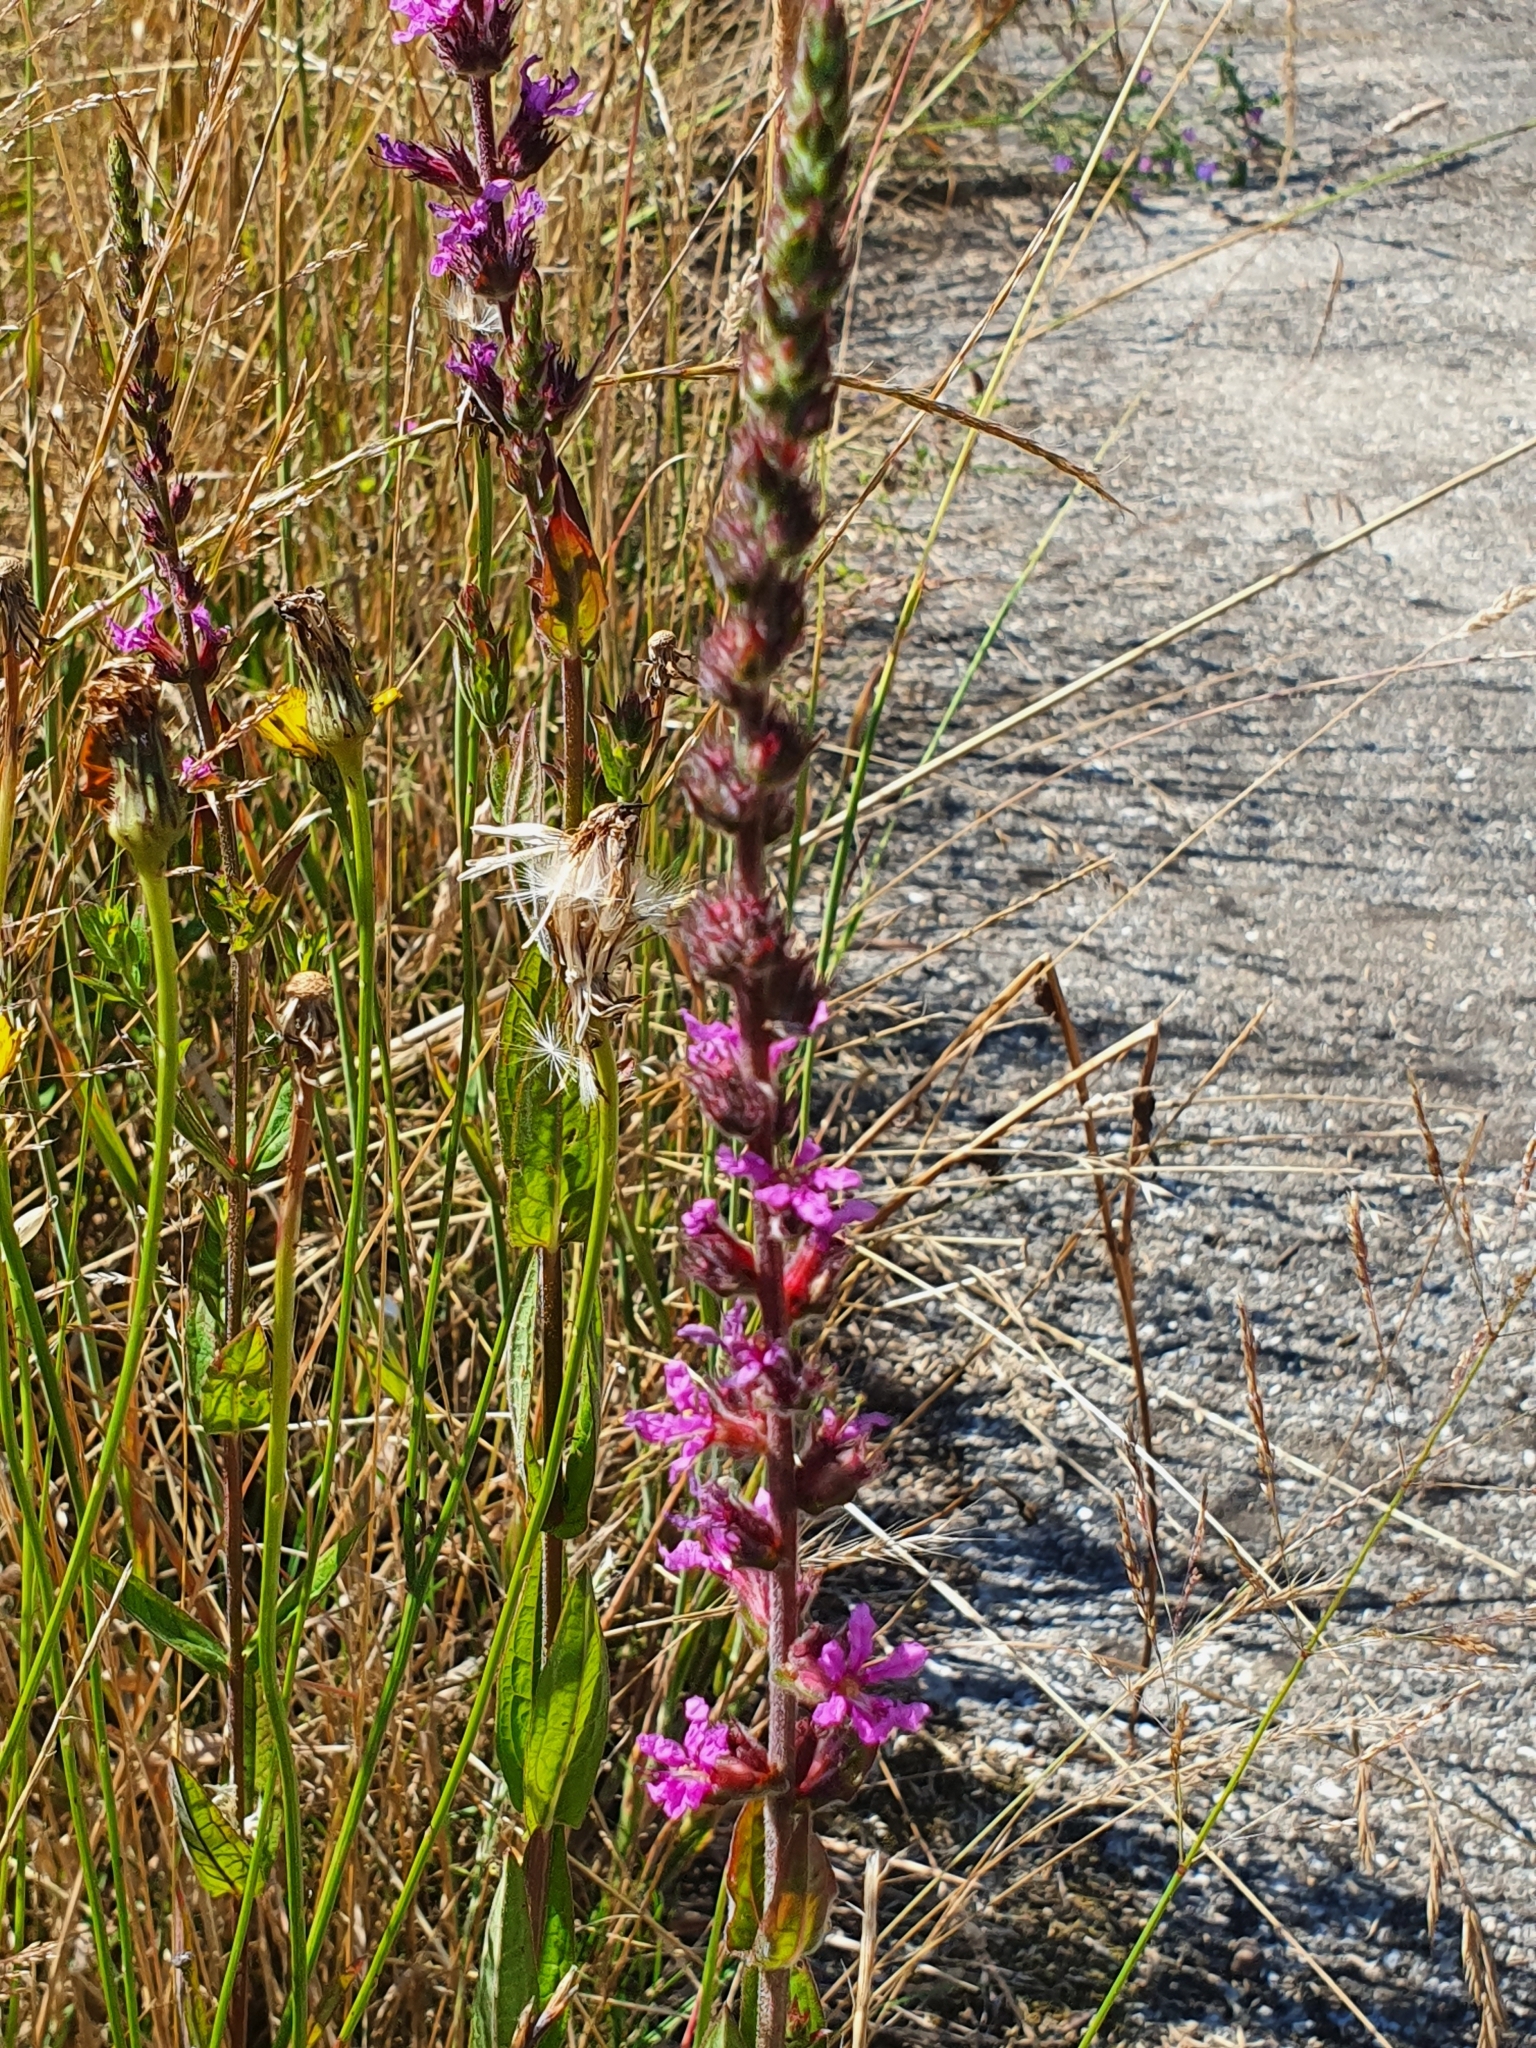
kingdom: Plantae
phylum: Tracheophyta
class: Magnoliopsida
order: Myrtales
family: Lythraceae
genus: Lythrum
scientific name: Lythrum salicaria
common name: Purple loosestrife
